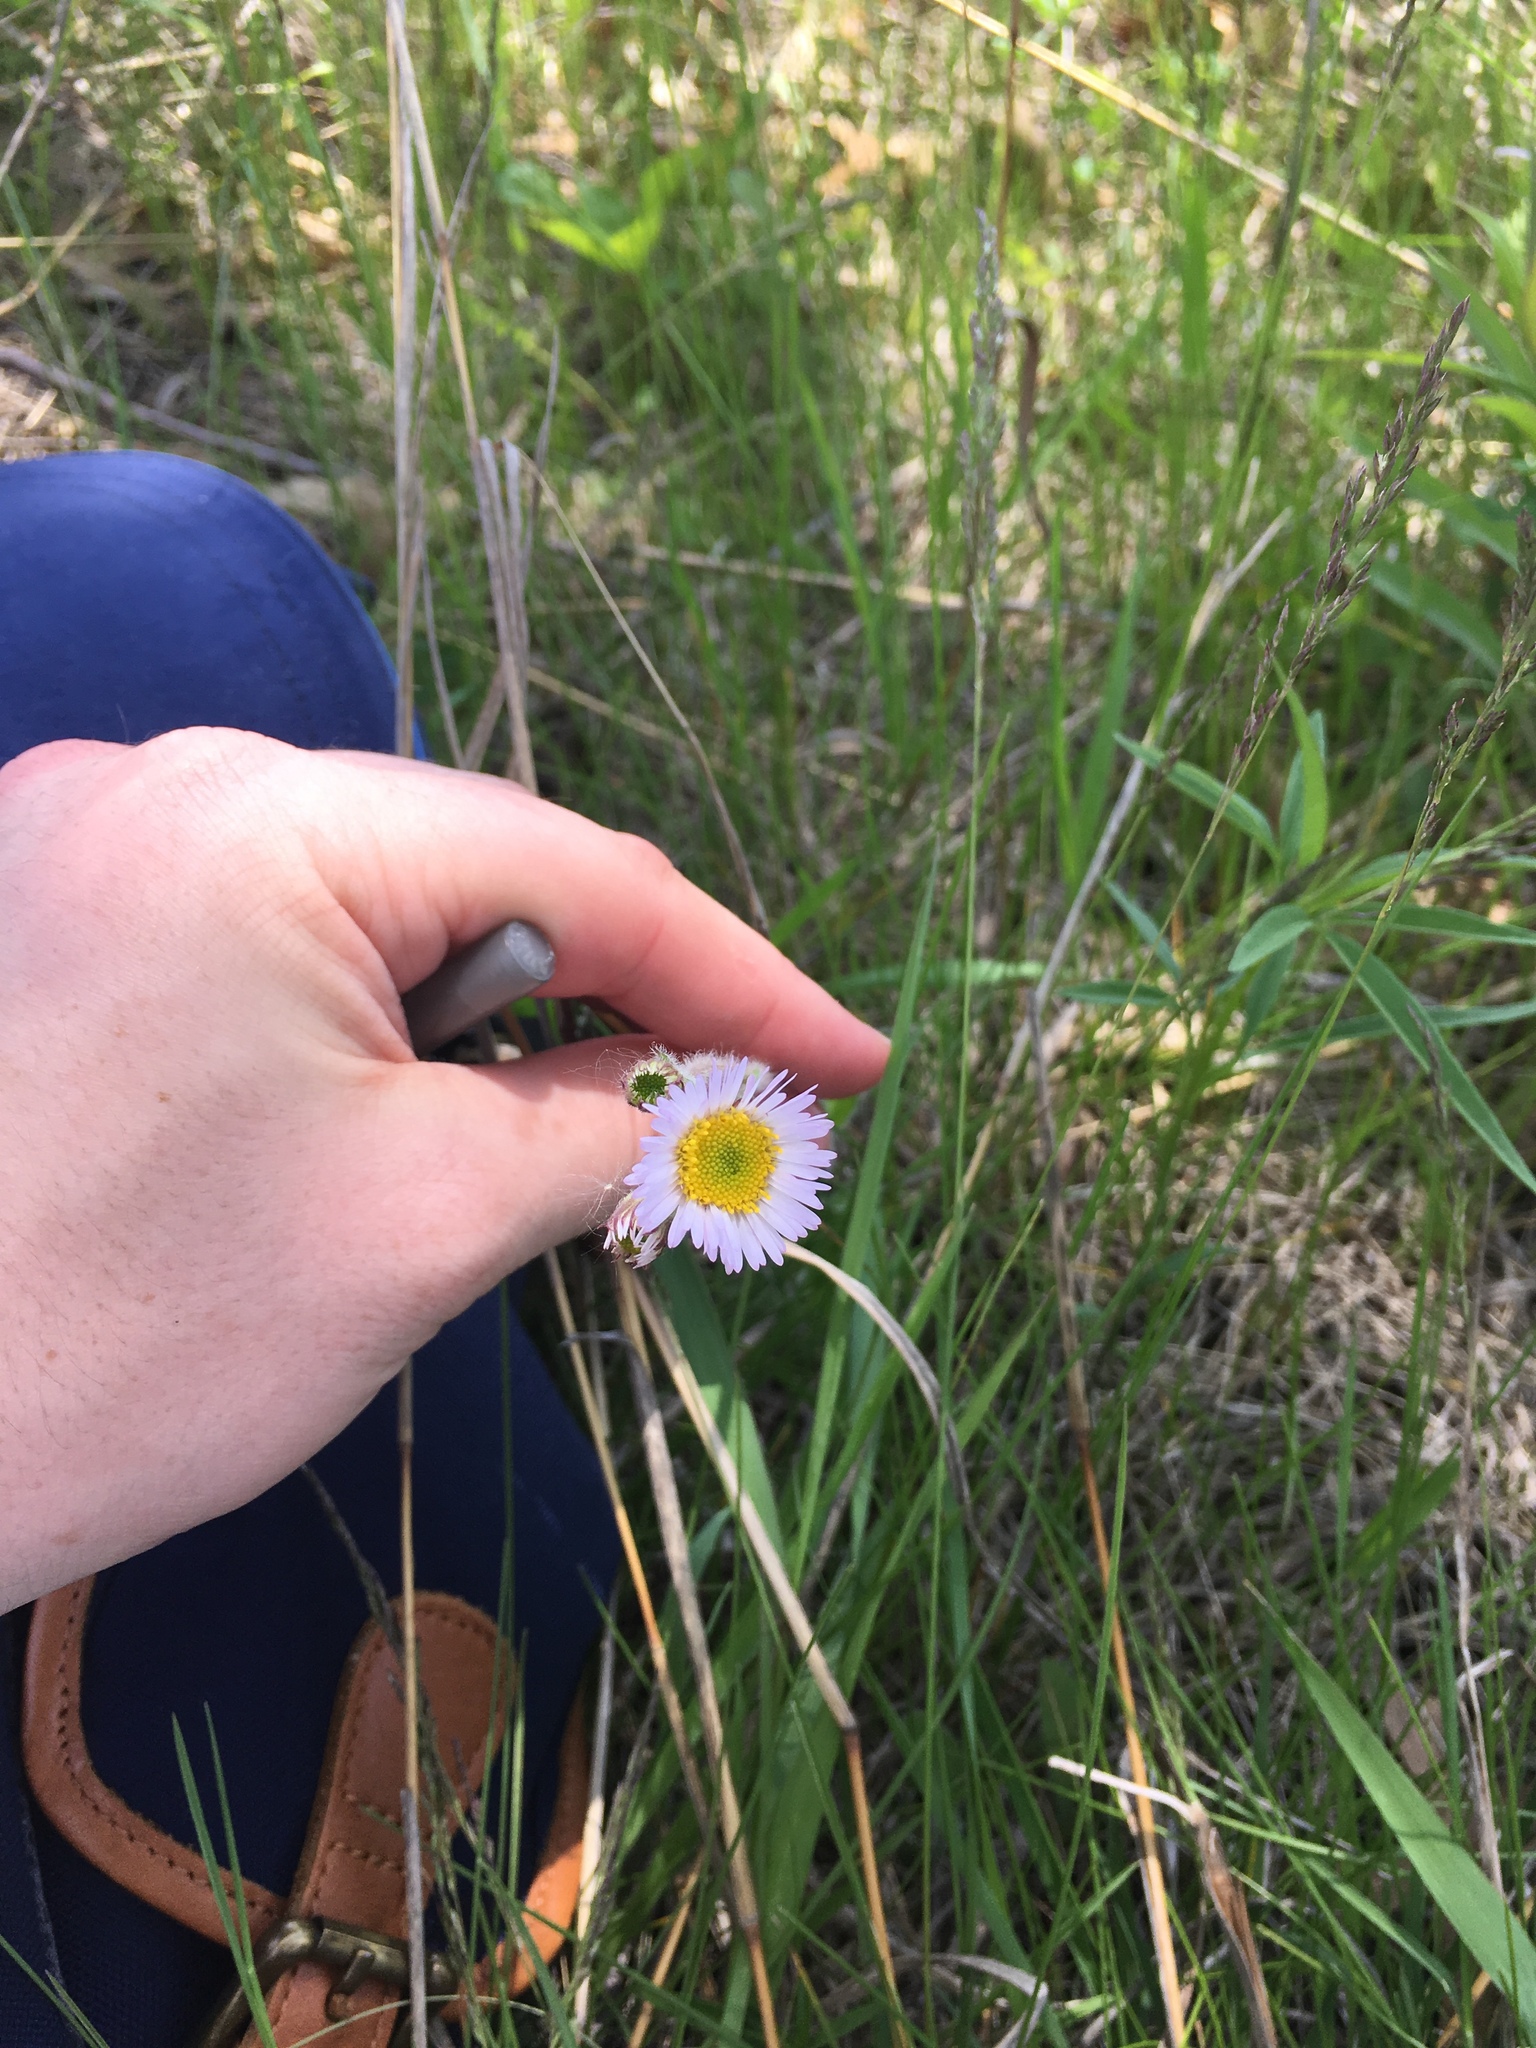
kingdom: Plantae
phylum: Tracheophyta
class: Magnoliopsida
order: Asterales
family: Asteraceae
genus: Erigeron
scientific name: Erigeron pulchellus
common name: Hairy fleabane
